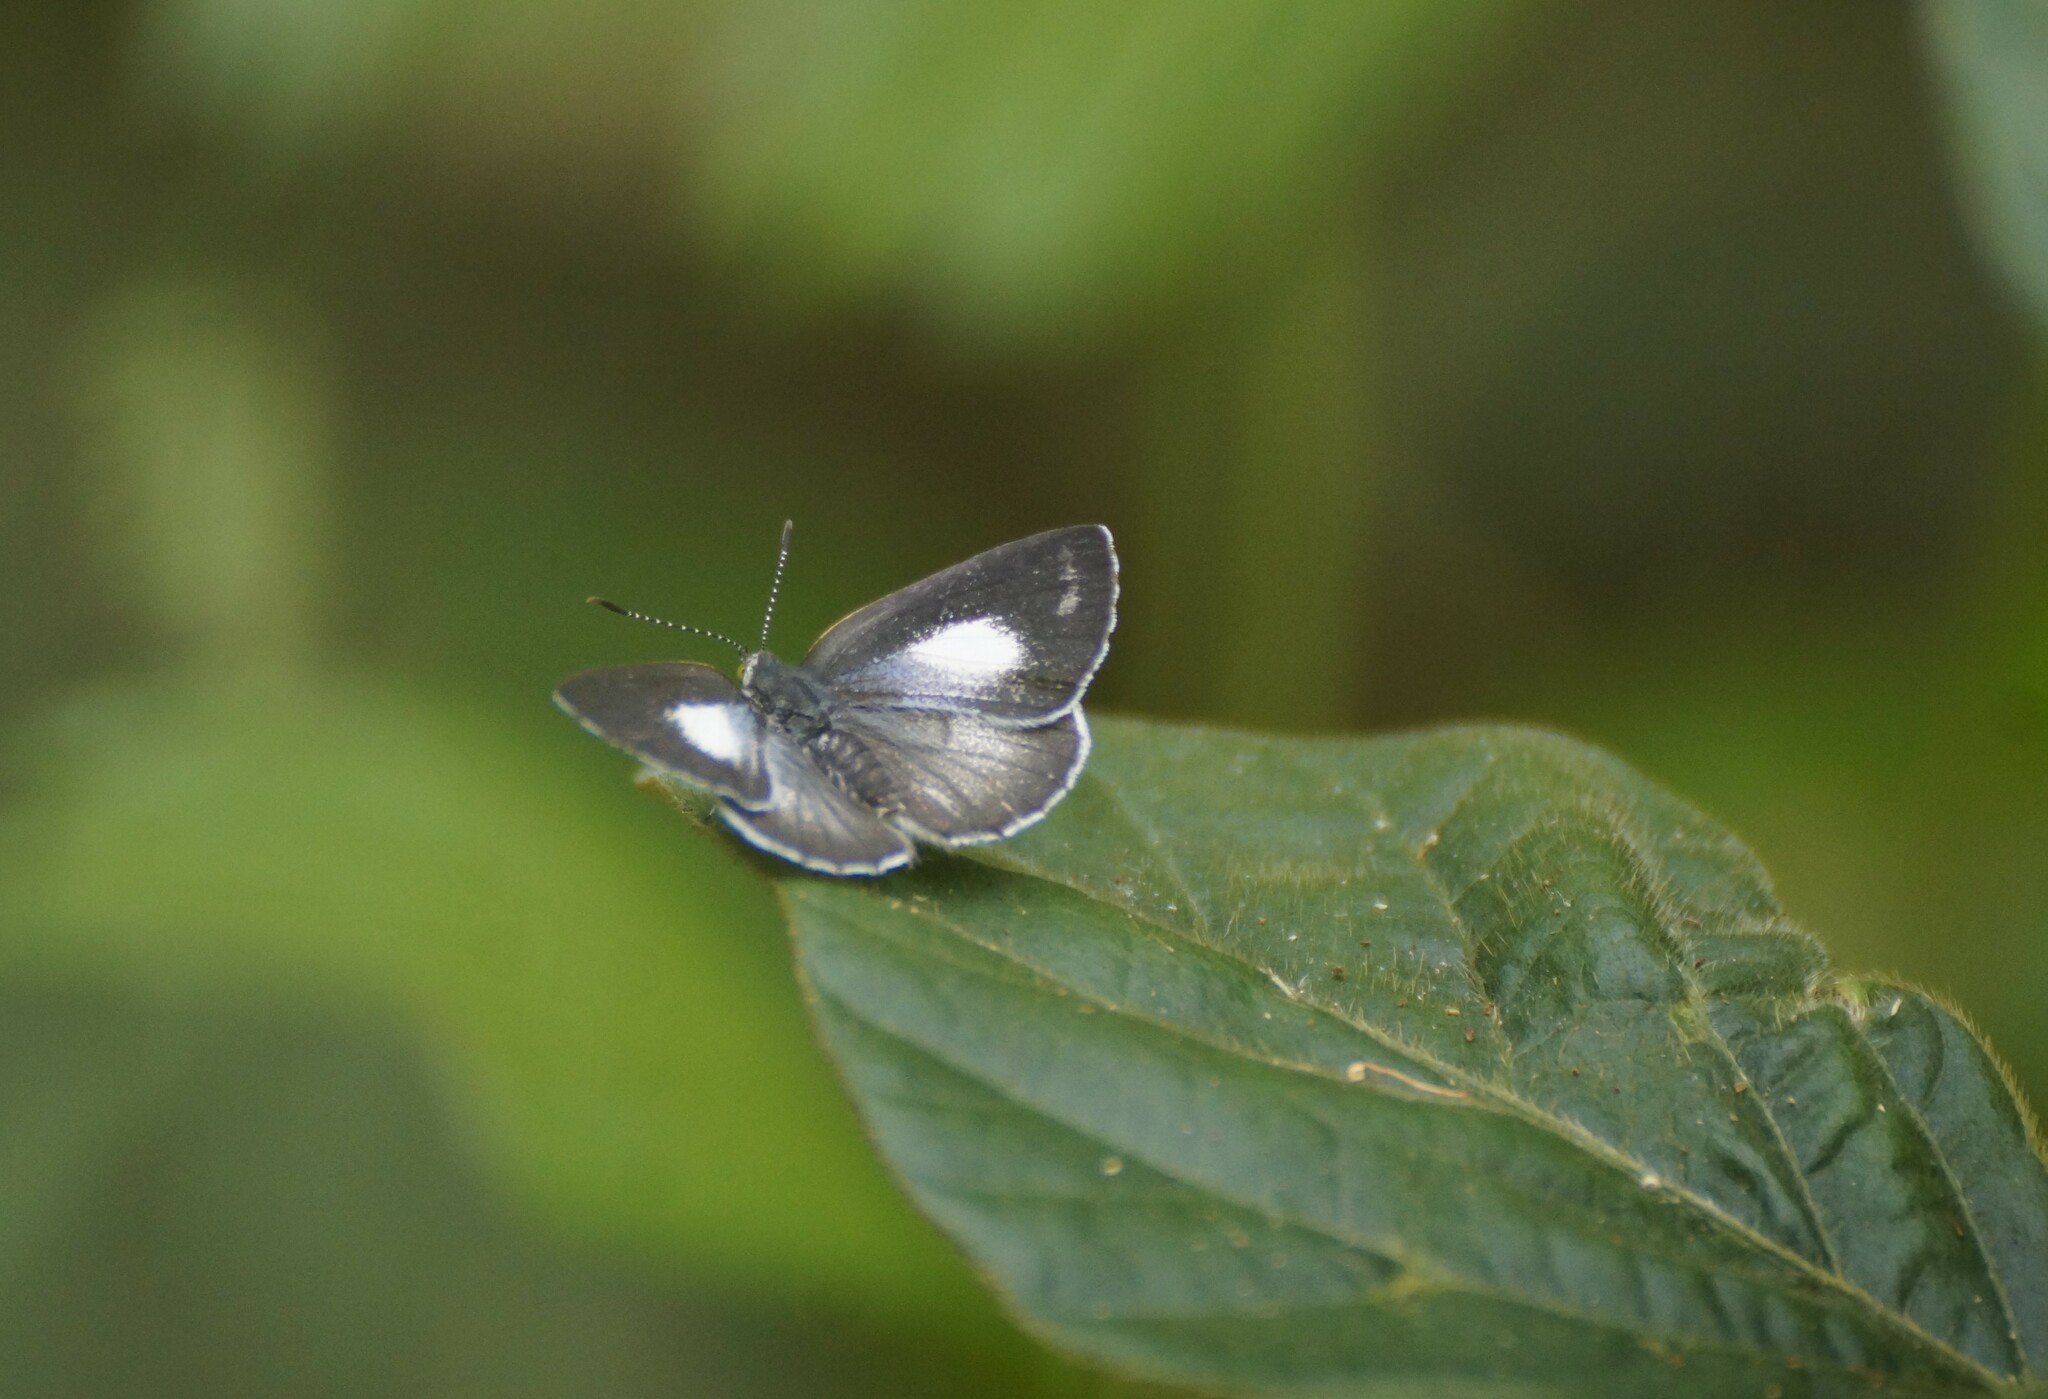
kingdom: Animalia
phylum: Arthropoda
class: Insecta
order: Lepidoptera
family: Lycaenidae
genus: Philiris
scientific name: Philiris nitens
